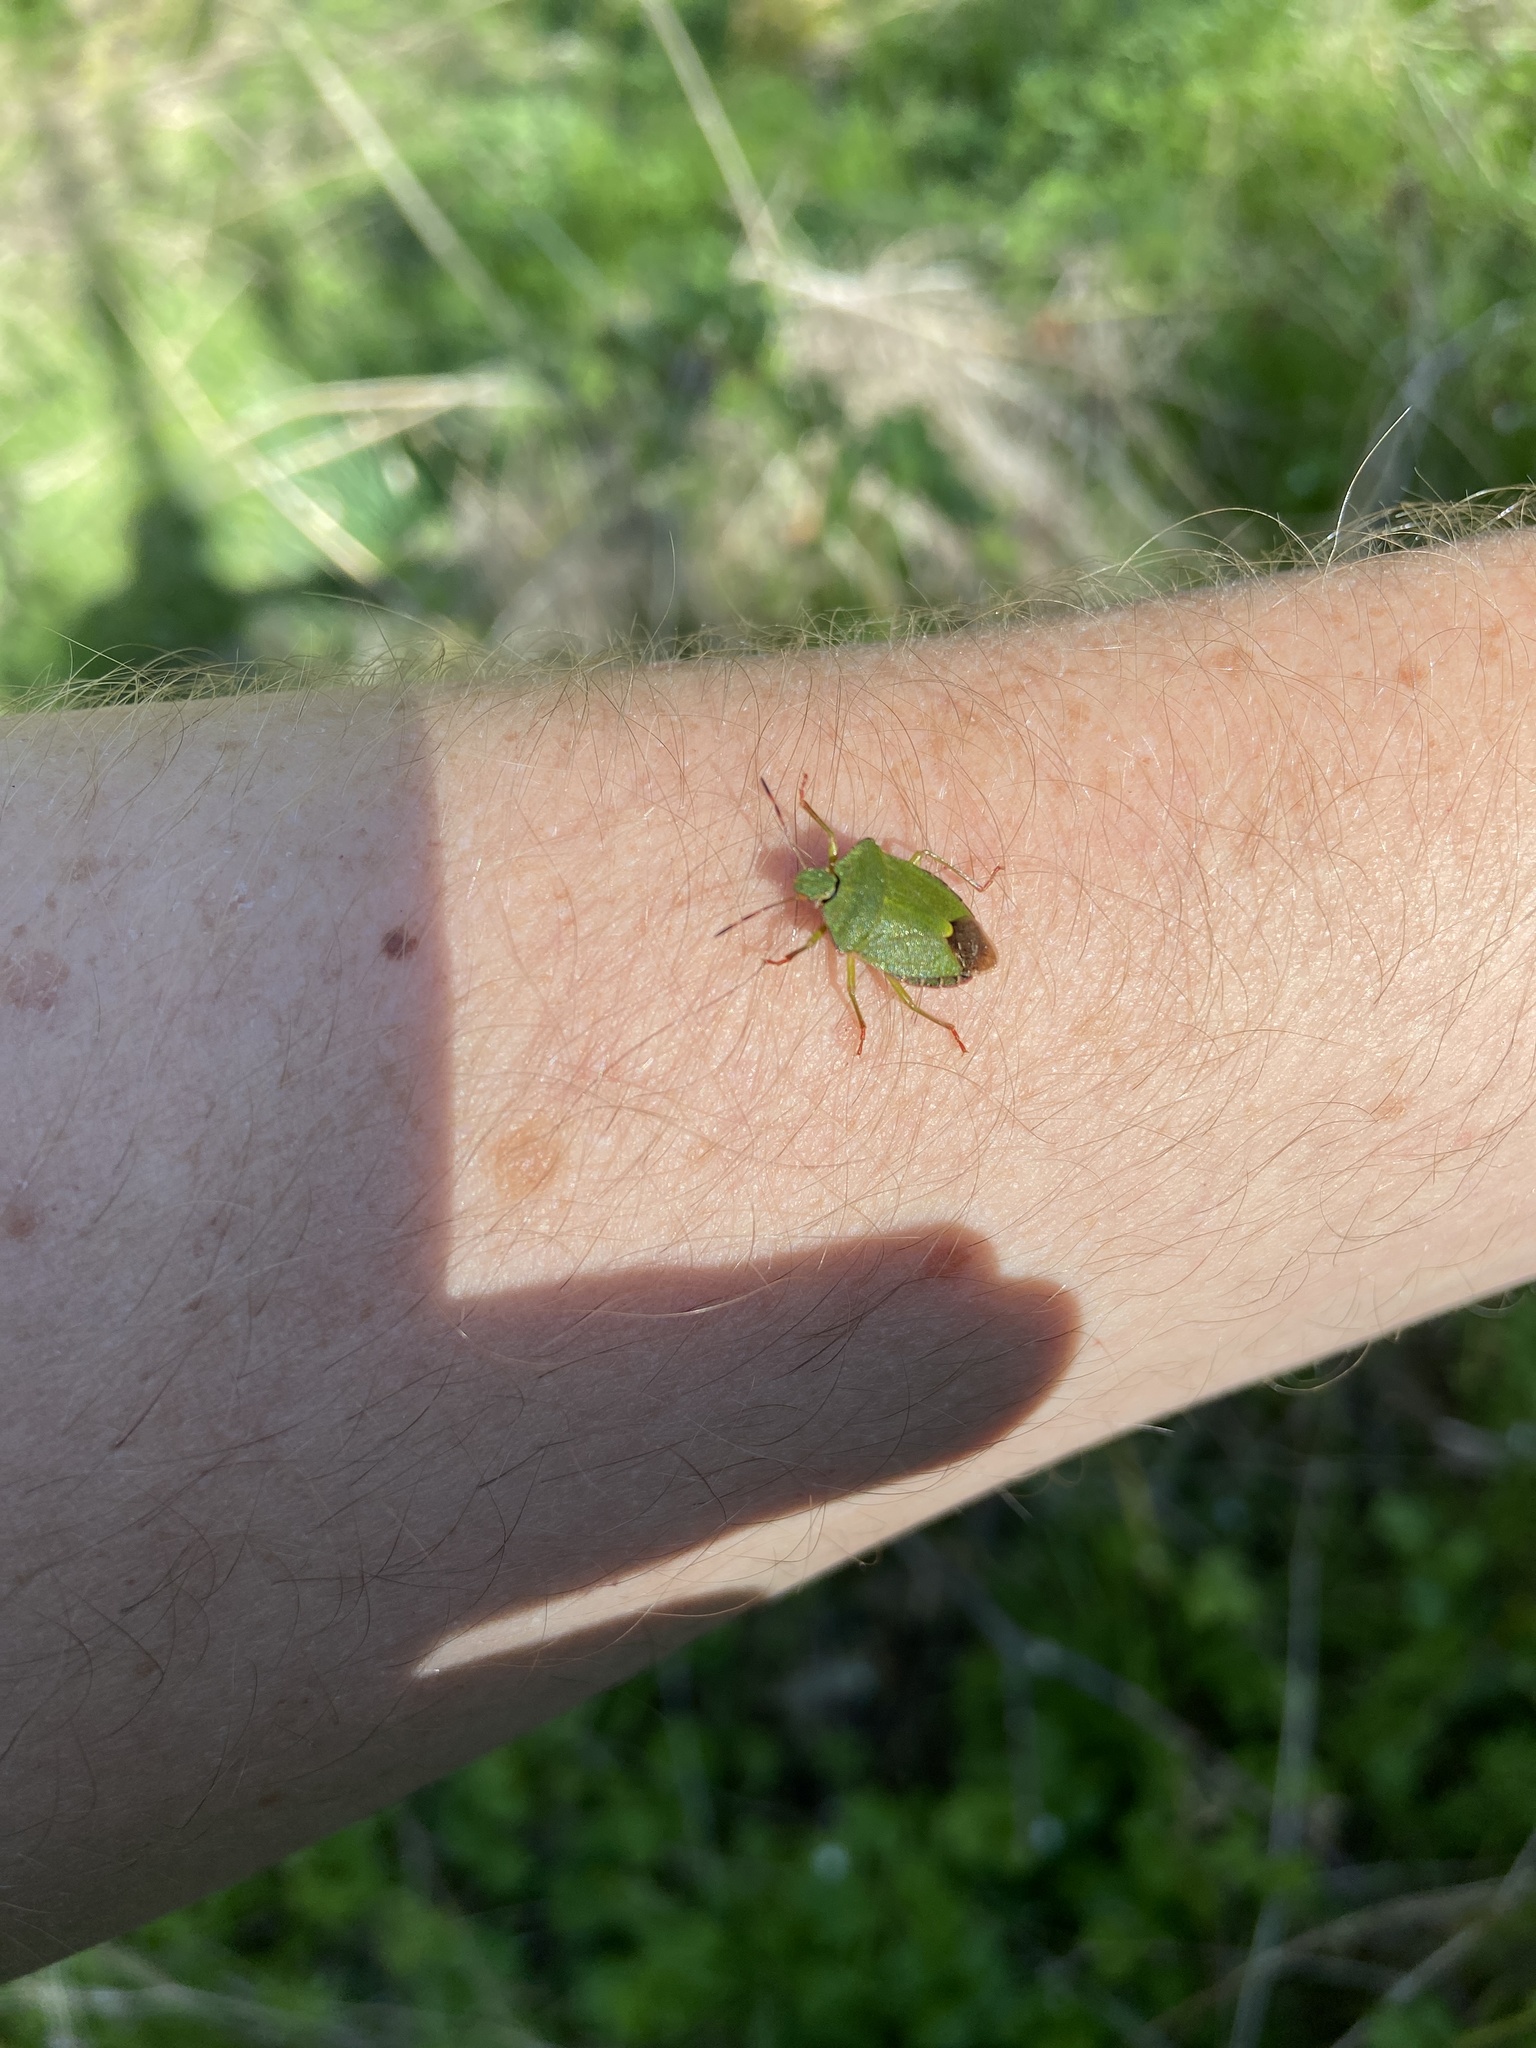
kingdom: Animalia
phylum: Arthropoda
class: Insecta
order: Hemiptera
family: Pentatomidae
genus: Palomena
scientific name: Palomena prasina
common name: Green shieldbug
